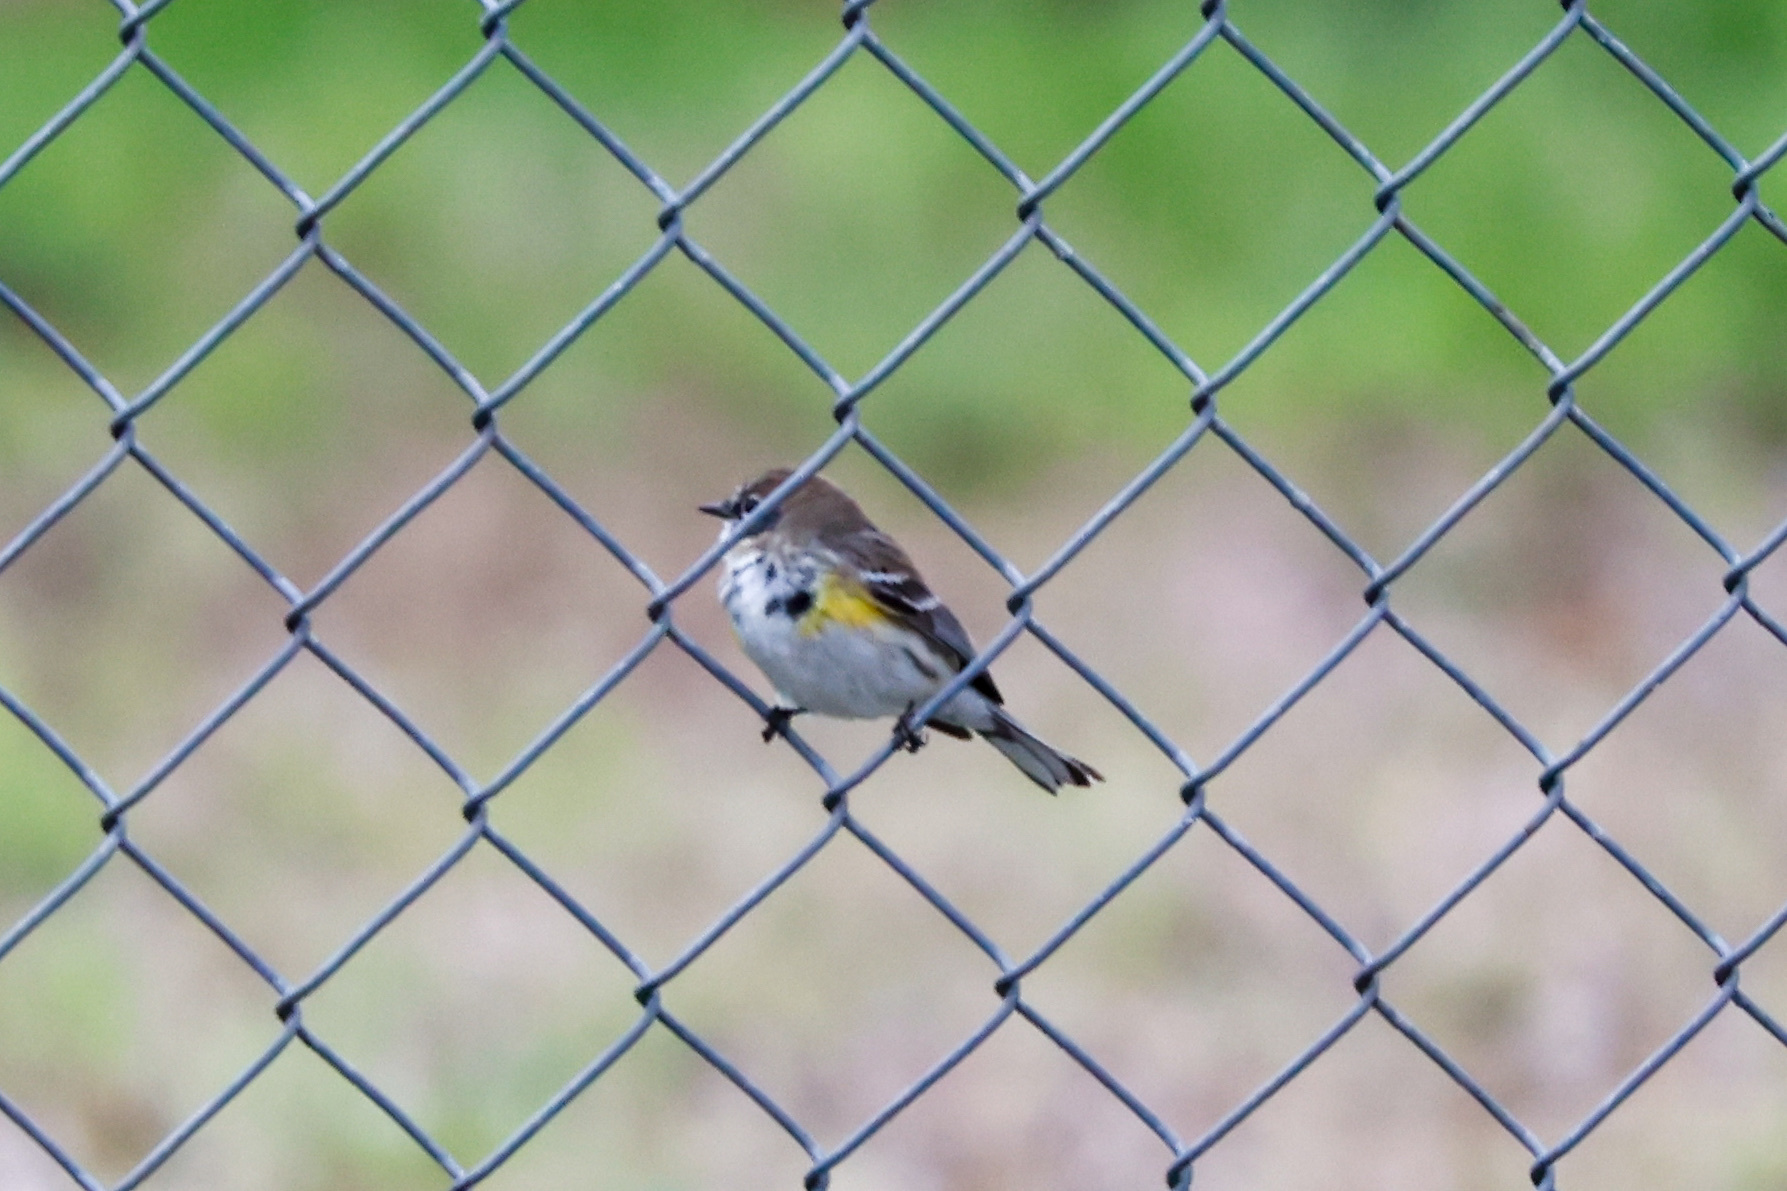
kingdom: Animalia
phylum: Chordata
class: Aves
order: Passeriformes
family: Parulidae
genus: Setophaga
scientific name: Setophaga coronata
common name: Myrtle warbler
